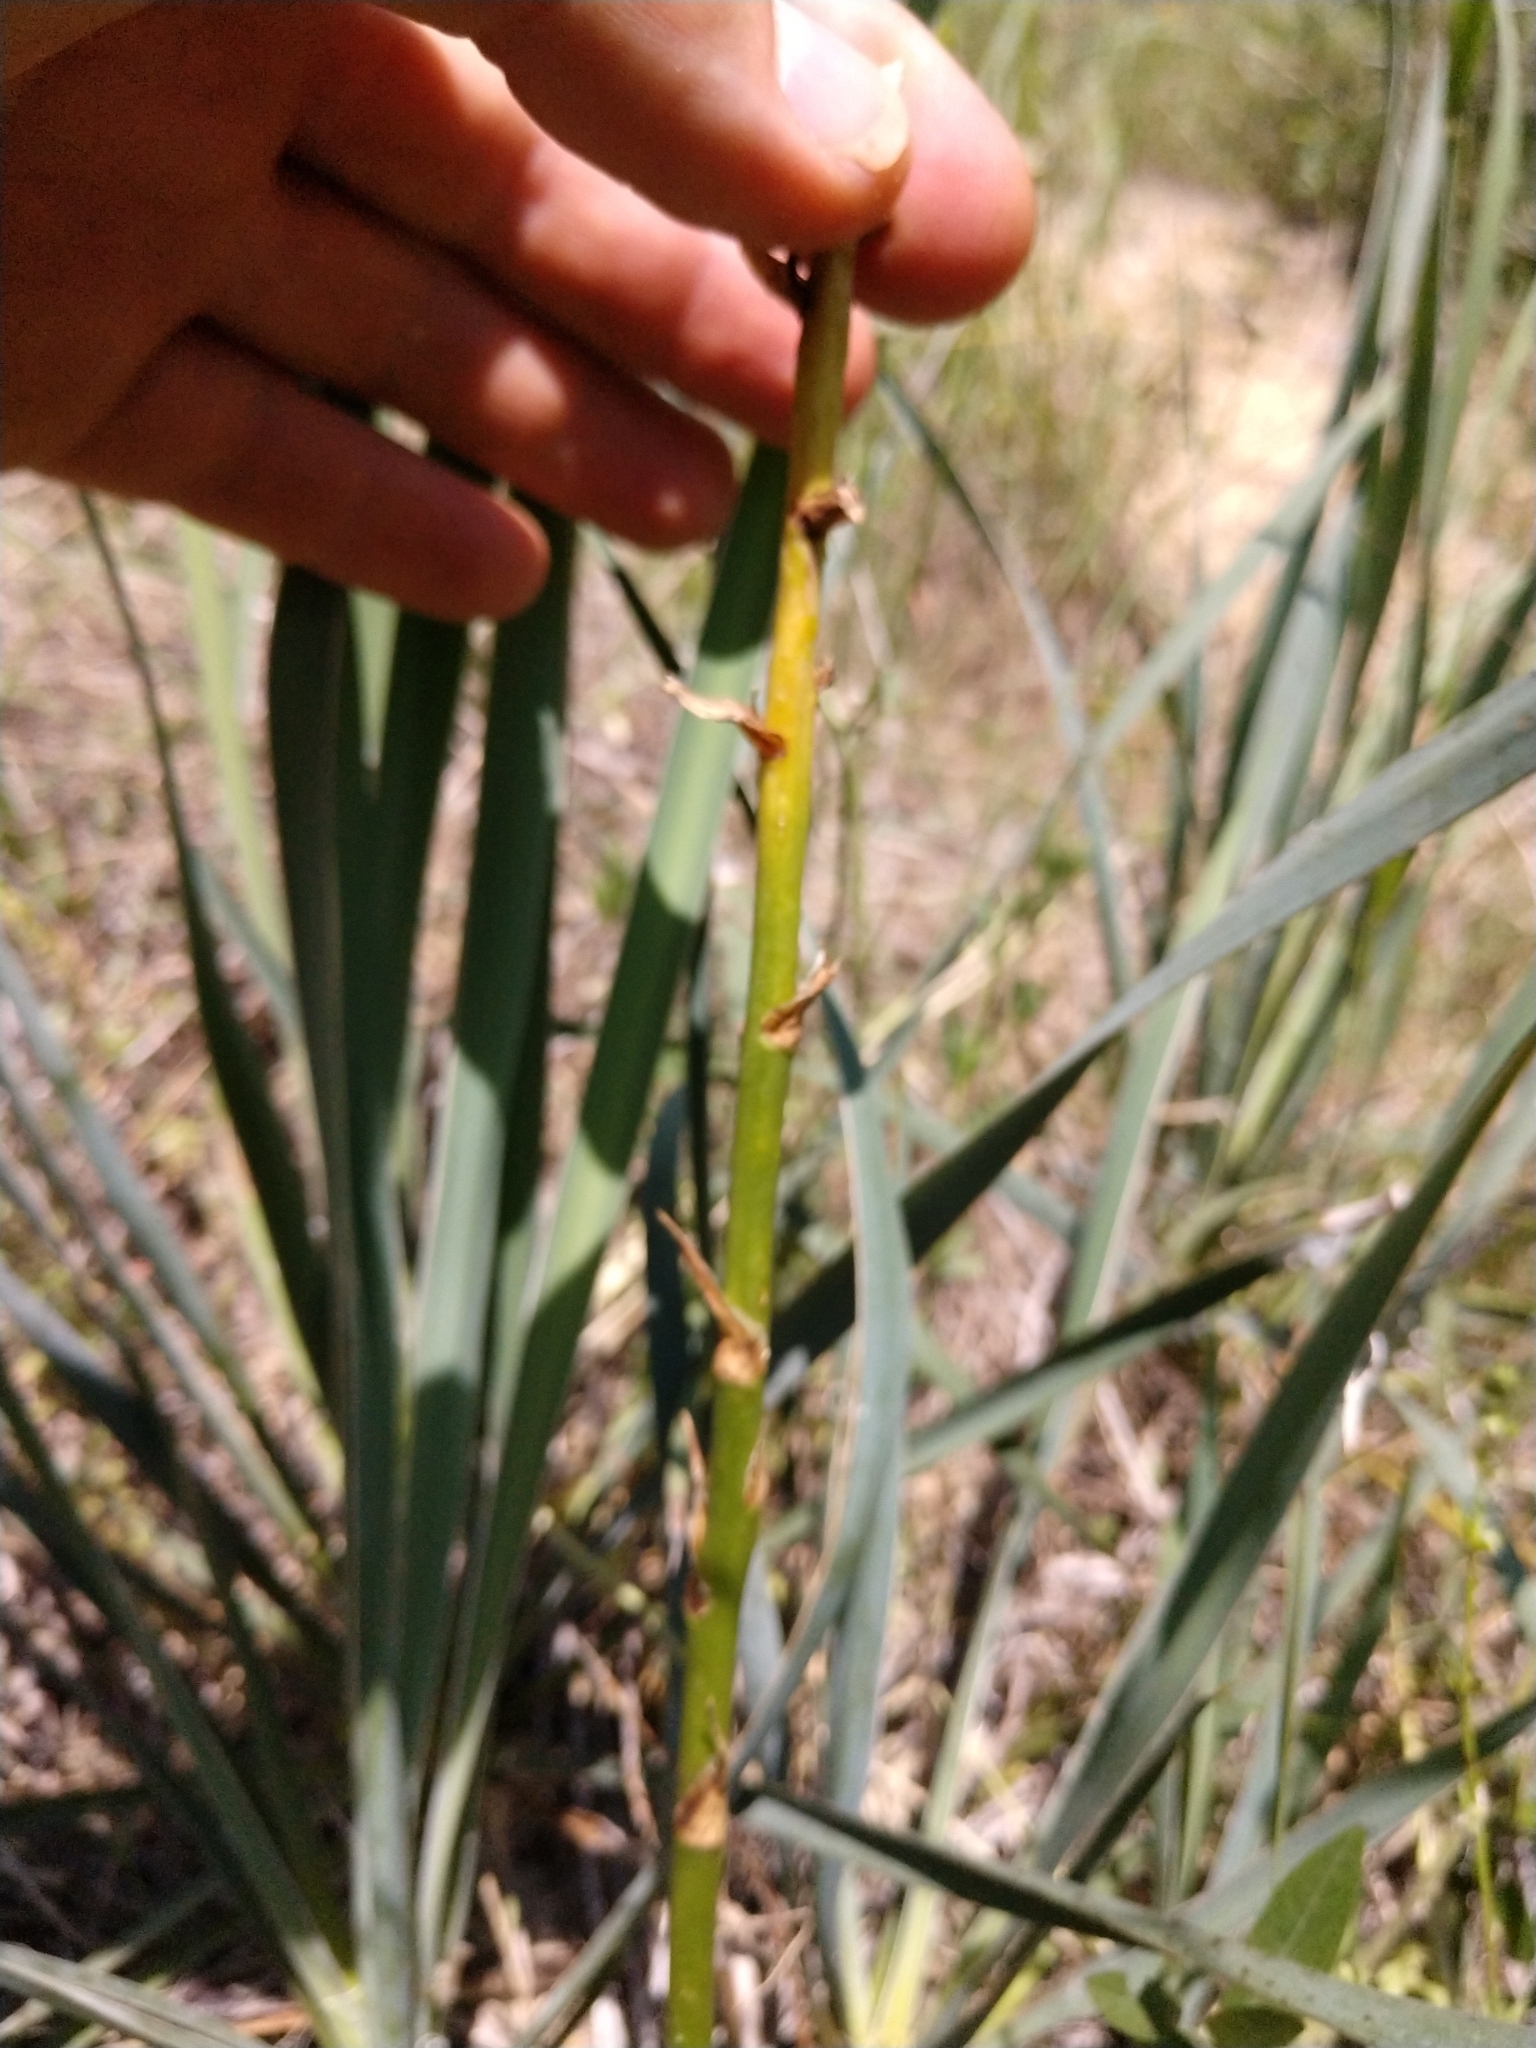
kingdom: Plantae
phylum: Tracheophyta
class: Liliopsida
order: Asparagales
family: Asparagaceae
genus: Yucca
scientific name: Yucca arkansana
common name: Arkansas yucca
